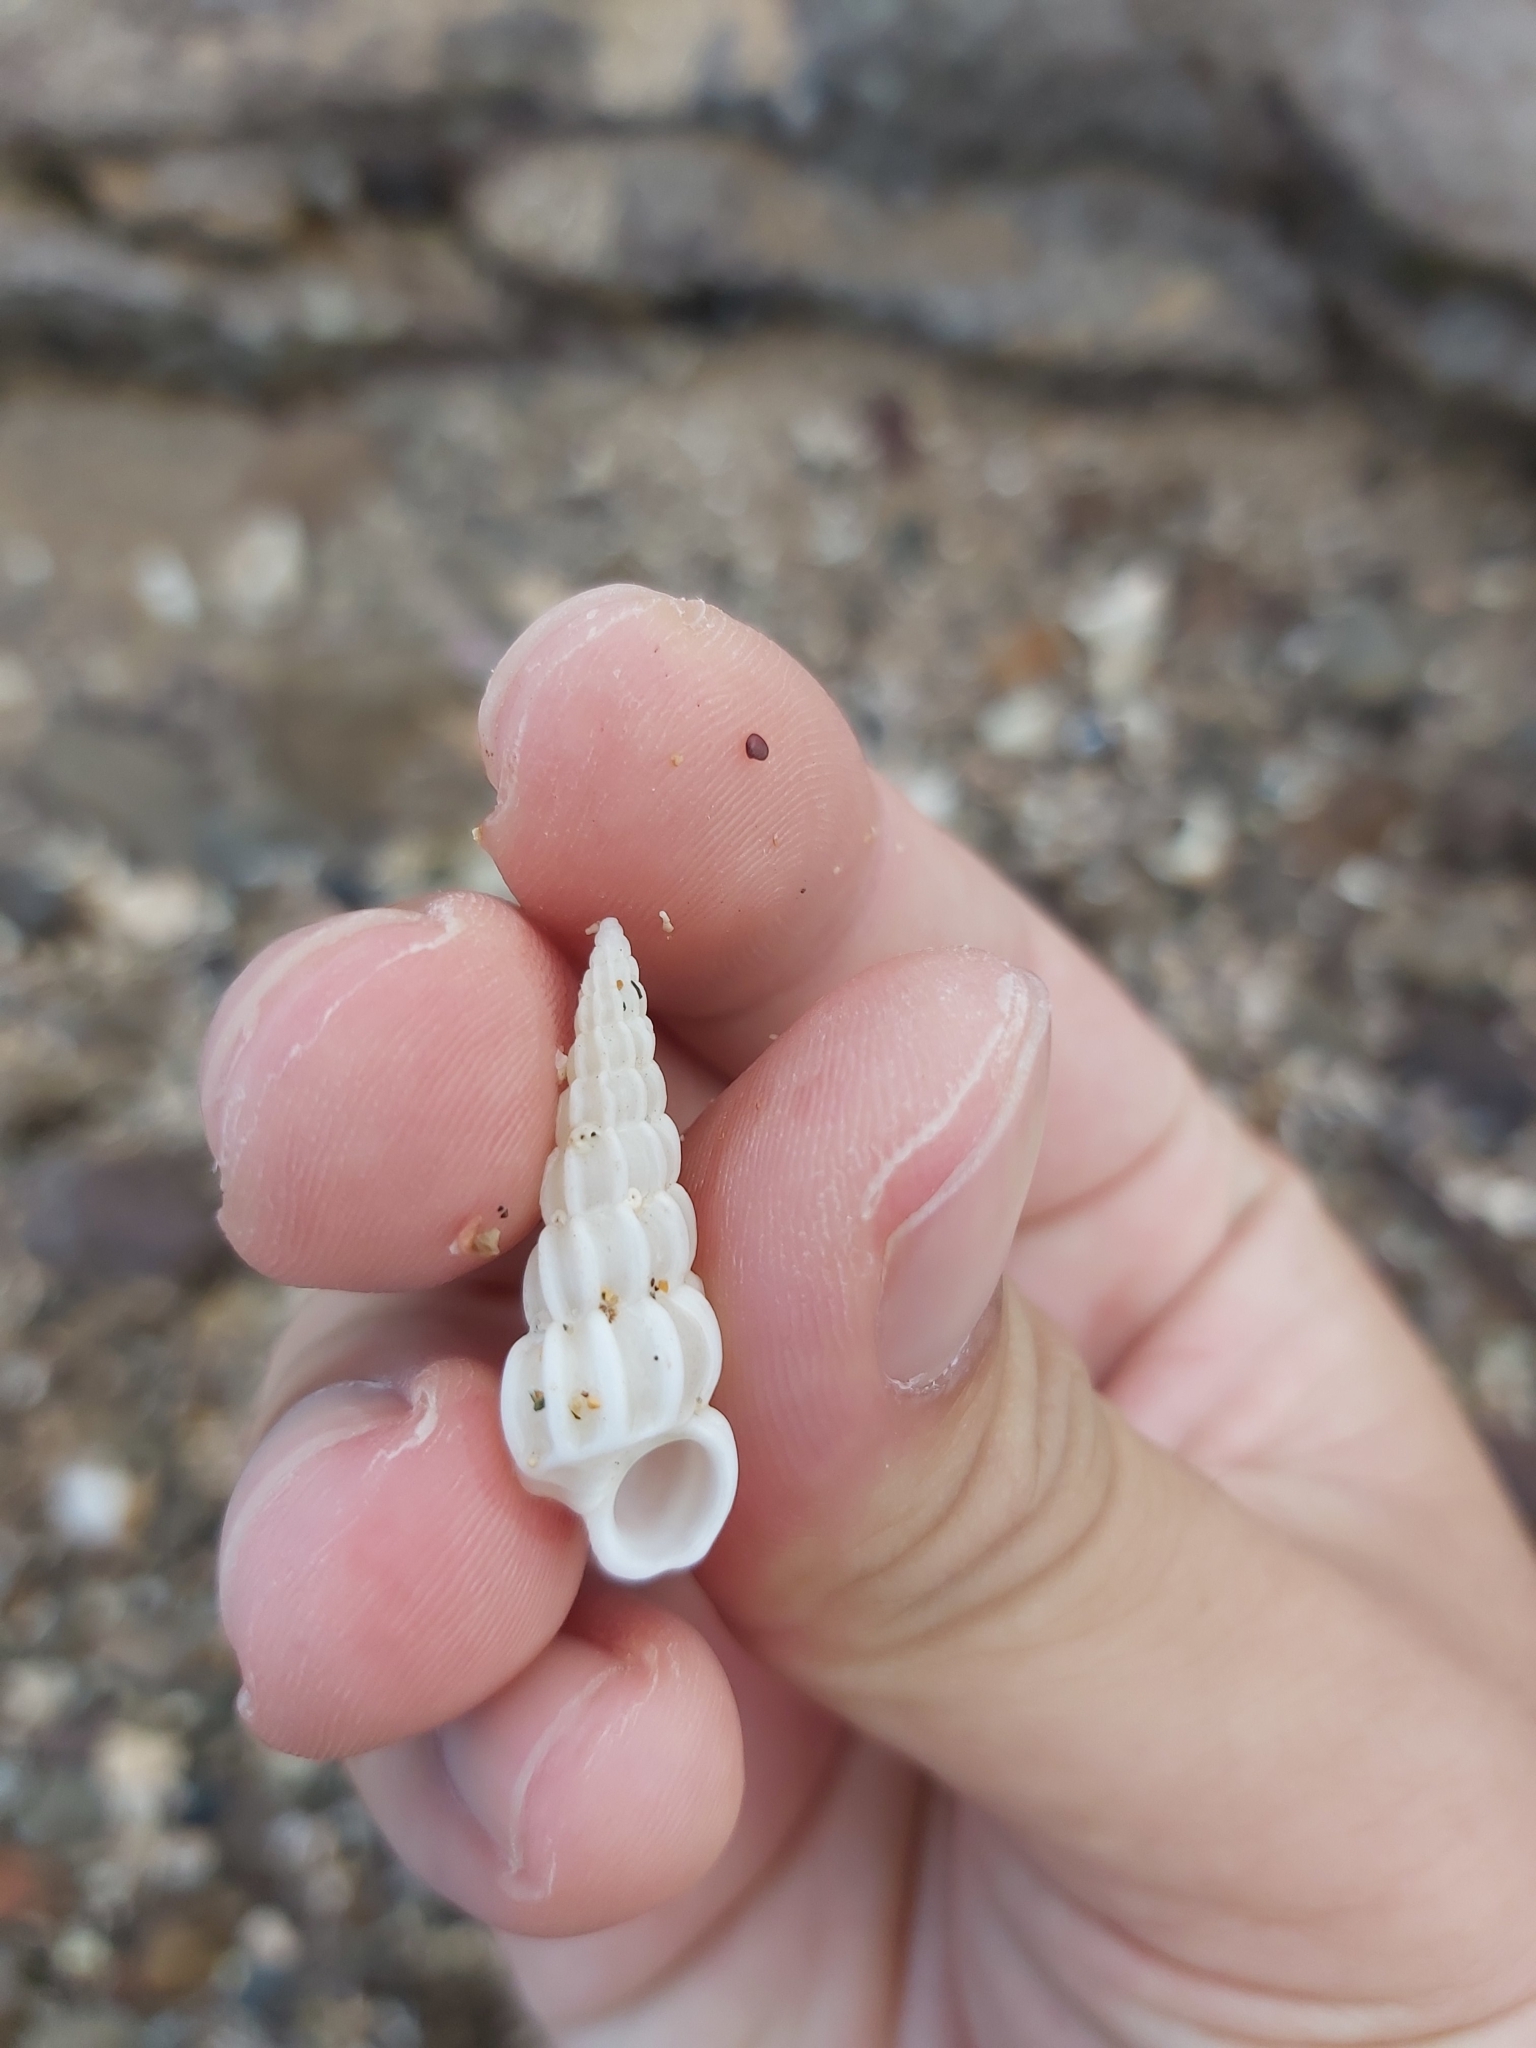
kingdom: Animalia
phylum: Mollusca
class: Gastropoda
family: Epitoniidae
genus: Opalia
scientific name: Opalia australis
